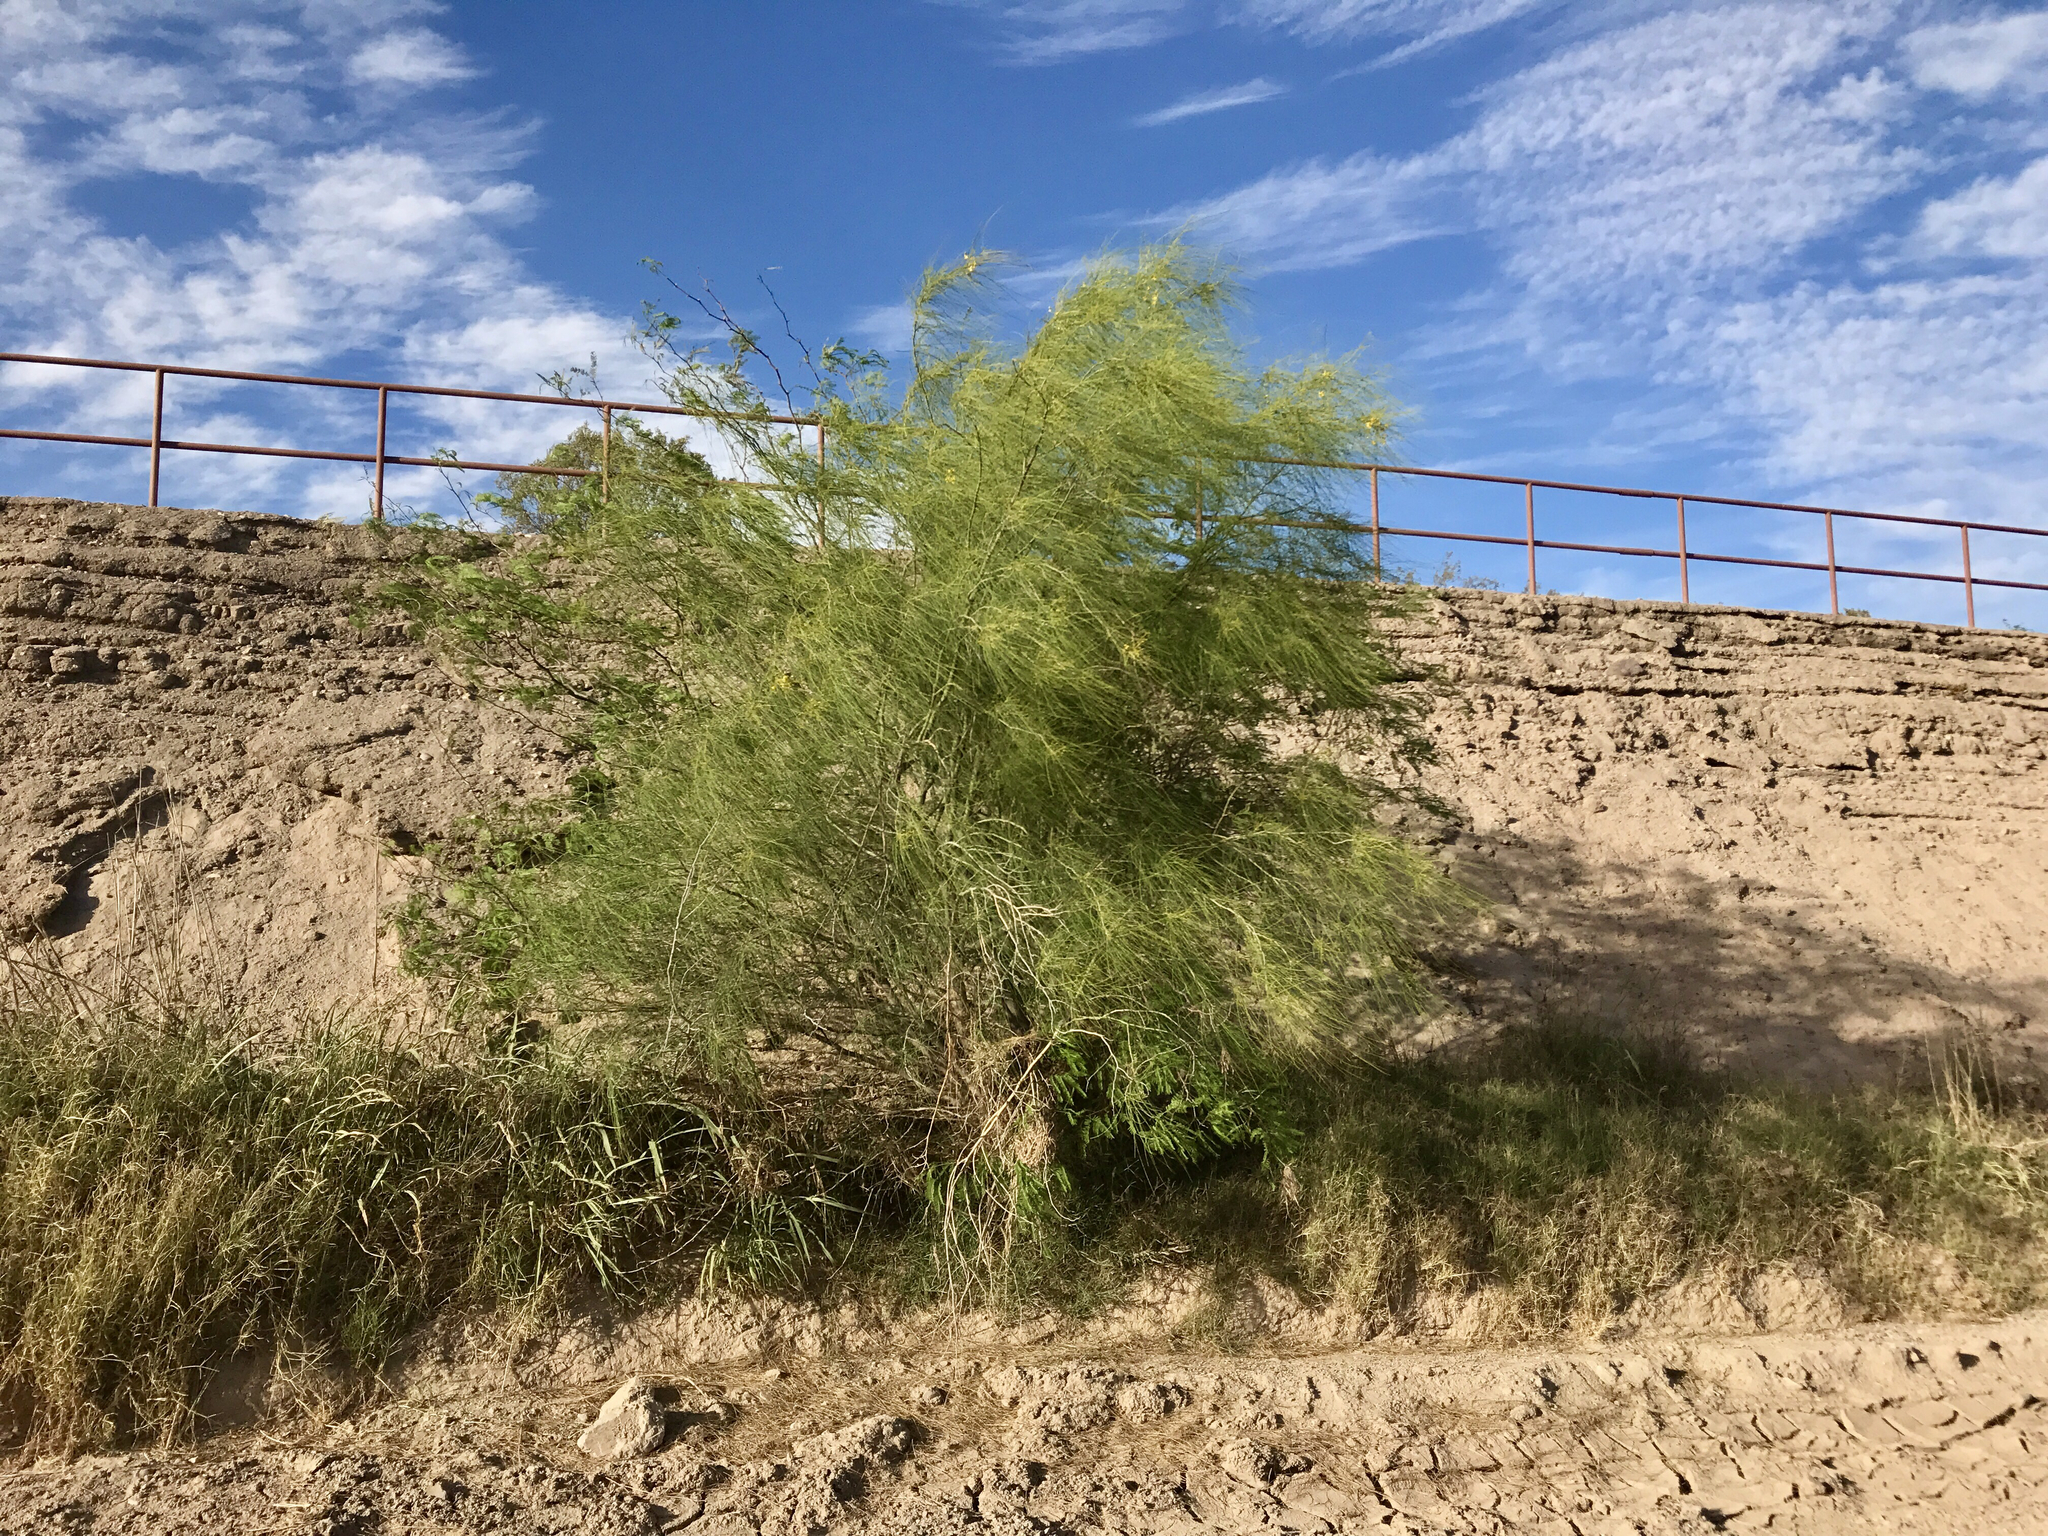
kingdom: Plantae
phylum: Tracheophyta
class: Magnoliopsida
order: Fabales
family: Fabaceae
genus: Parkinsonia
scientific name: Parkinsonia aculeata
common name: Jerusalem thorn
